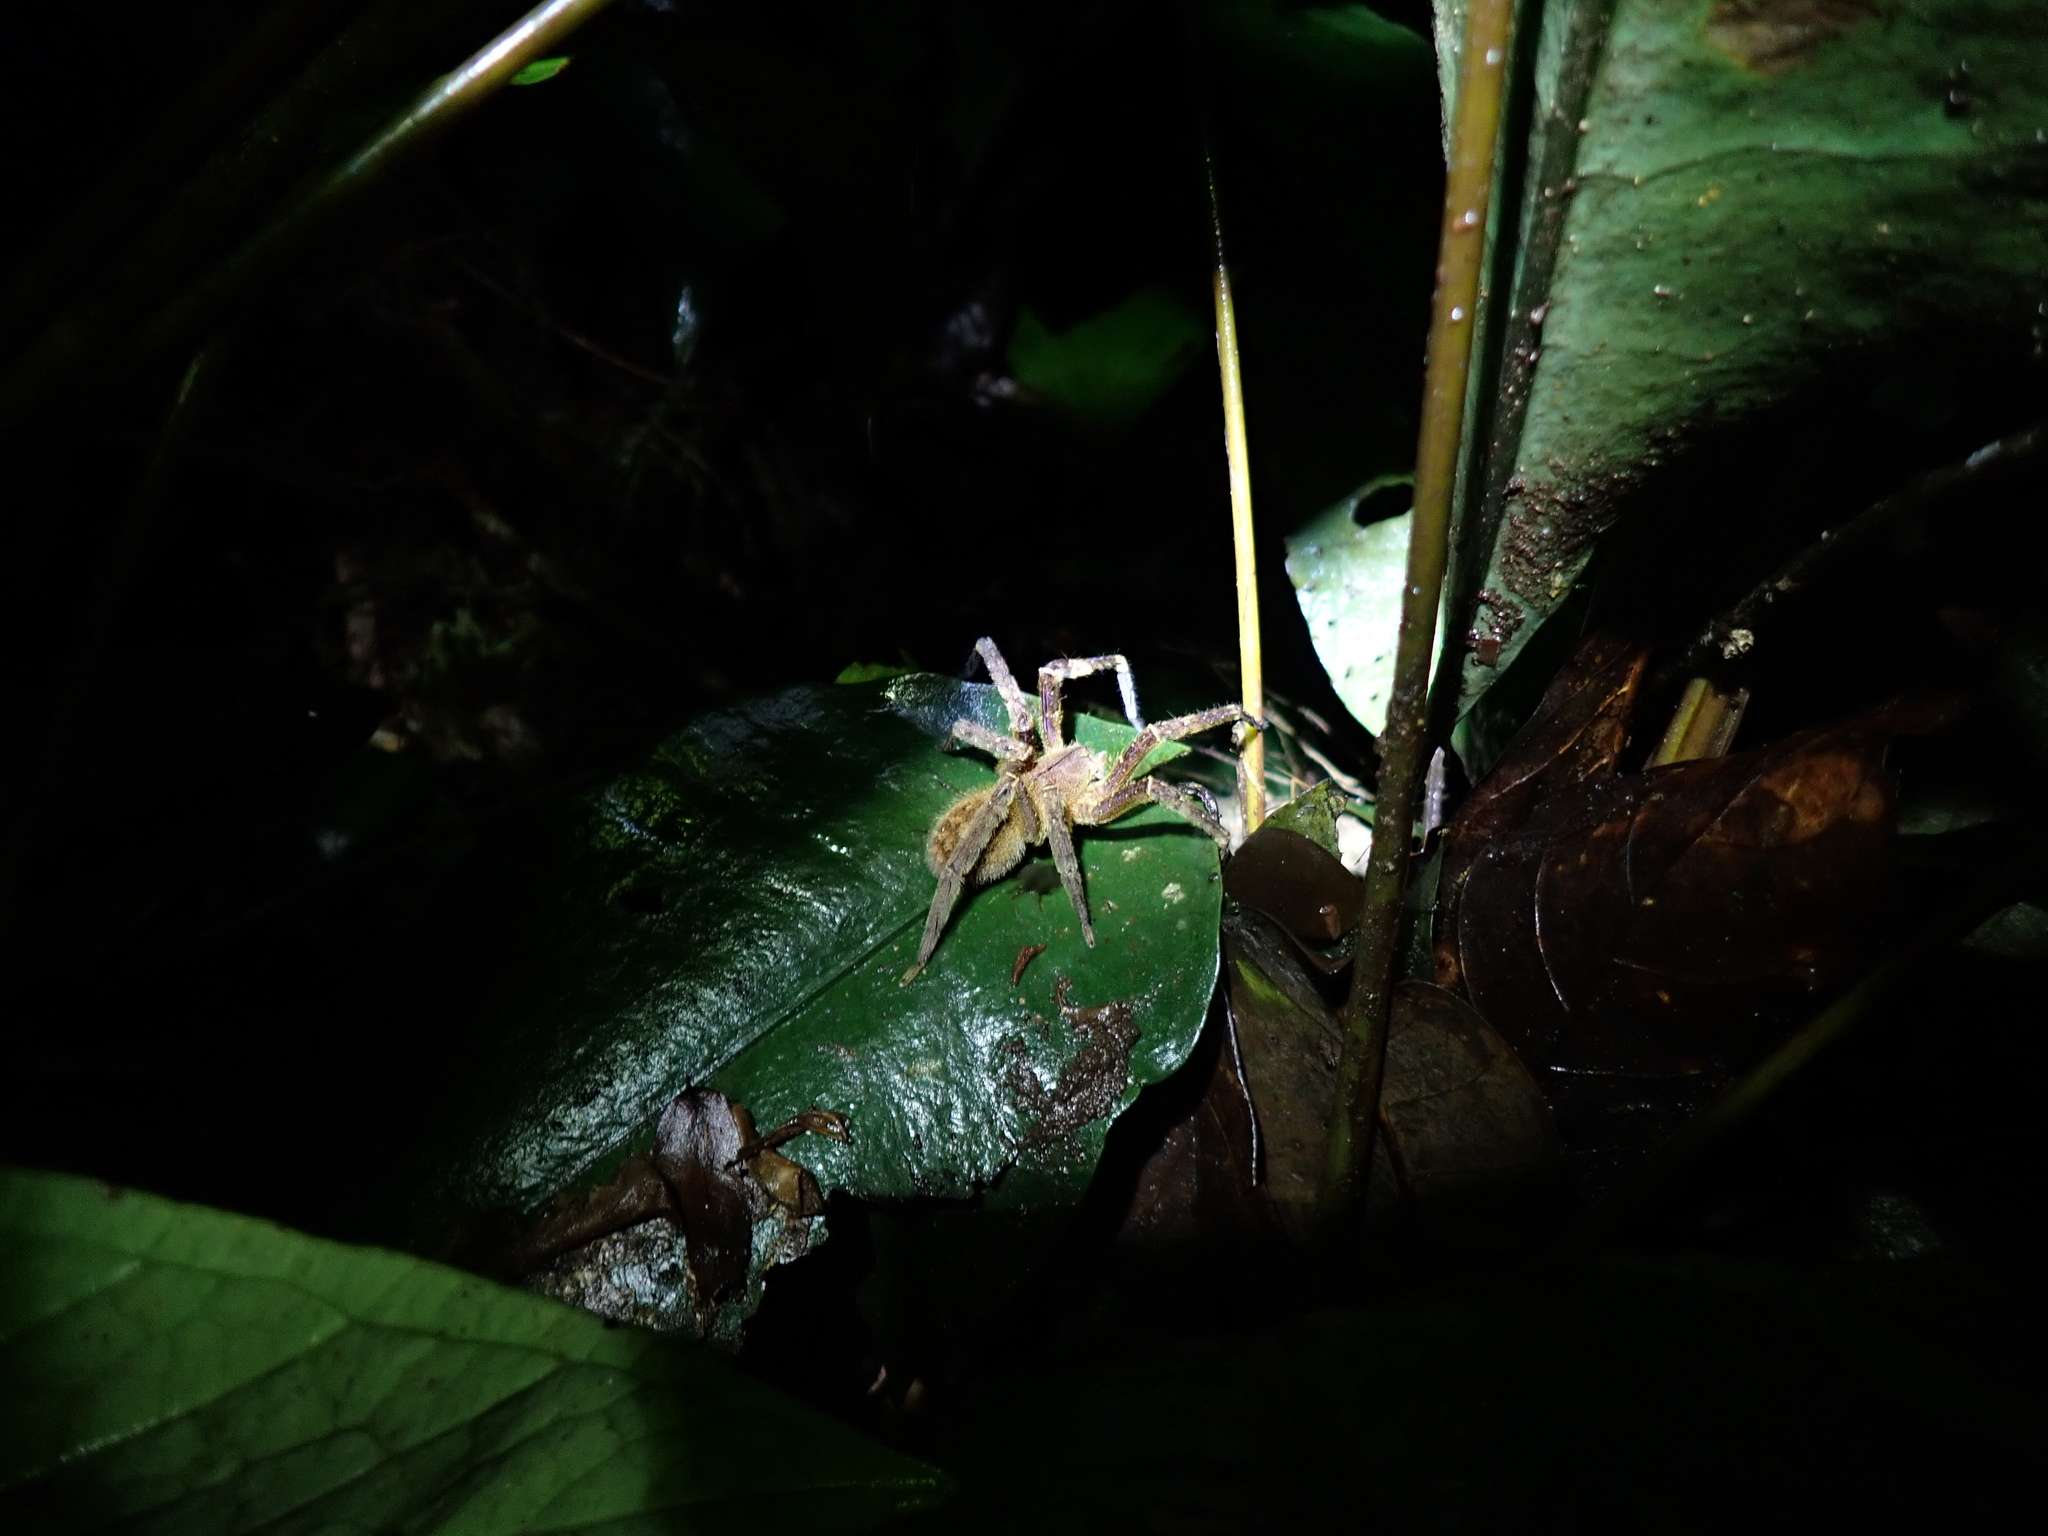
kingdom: Animalia
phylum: Arthropoda
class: Arachnida
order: Araneae
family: Ctenidae
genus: Phoneutria
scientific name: Phoneutria fera
